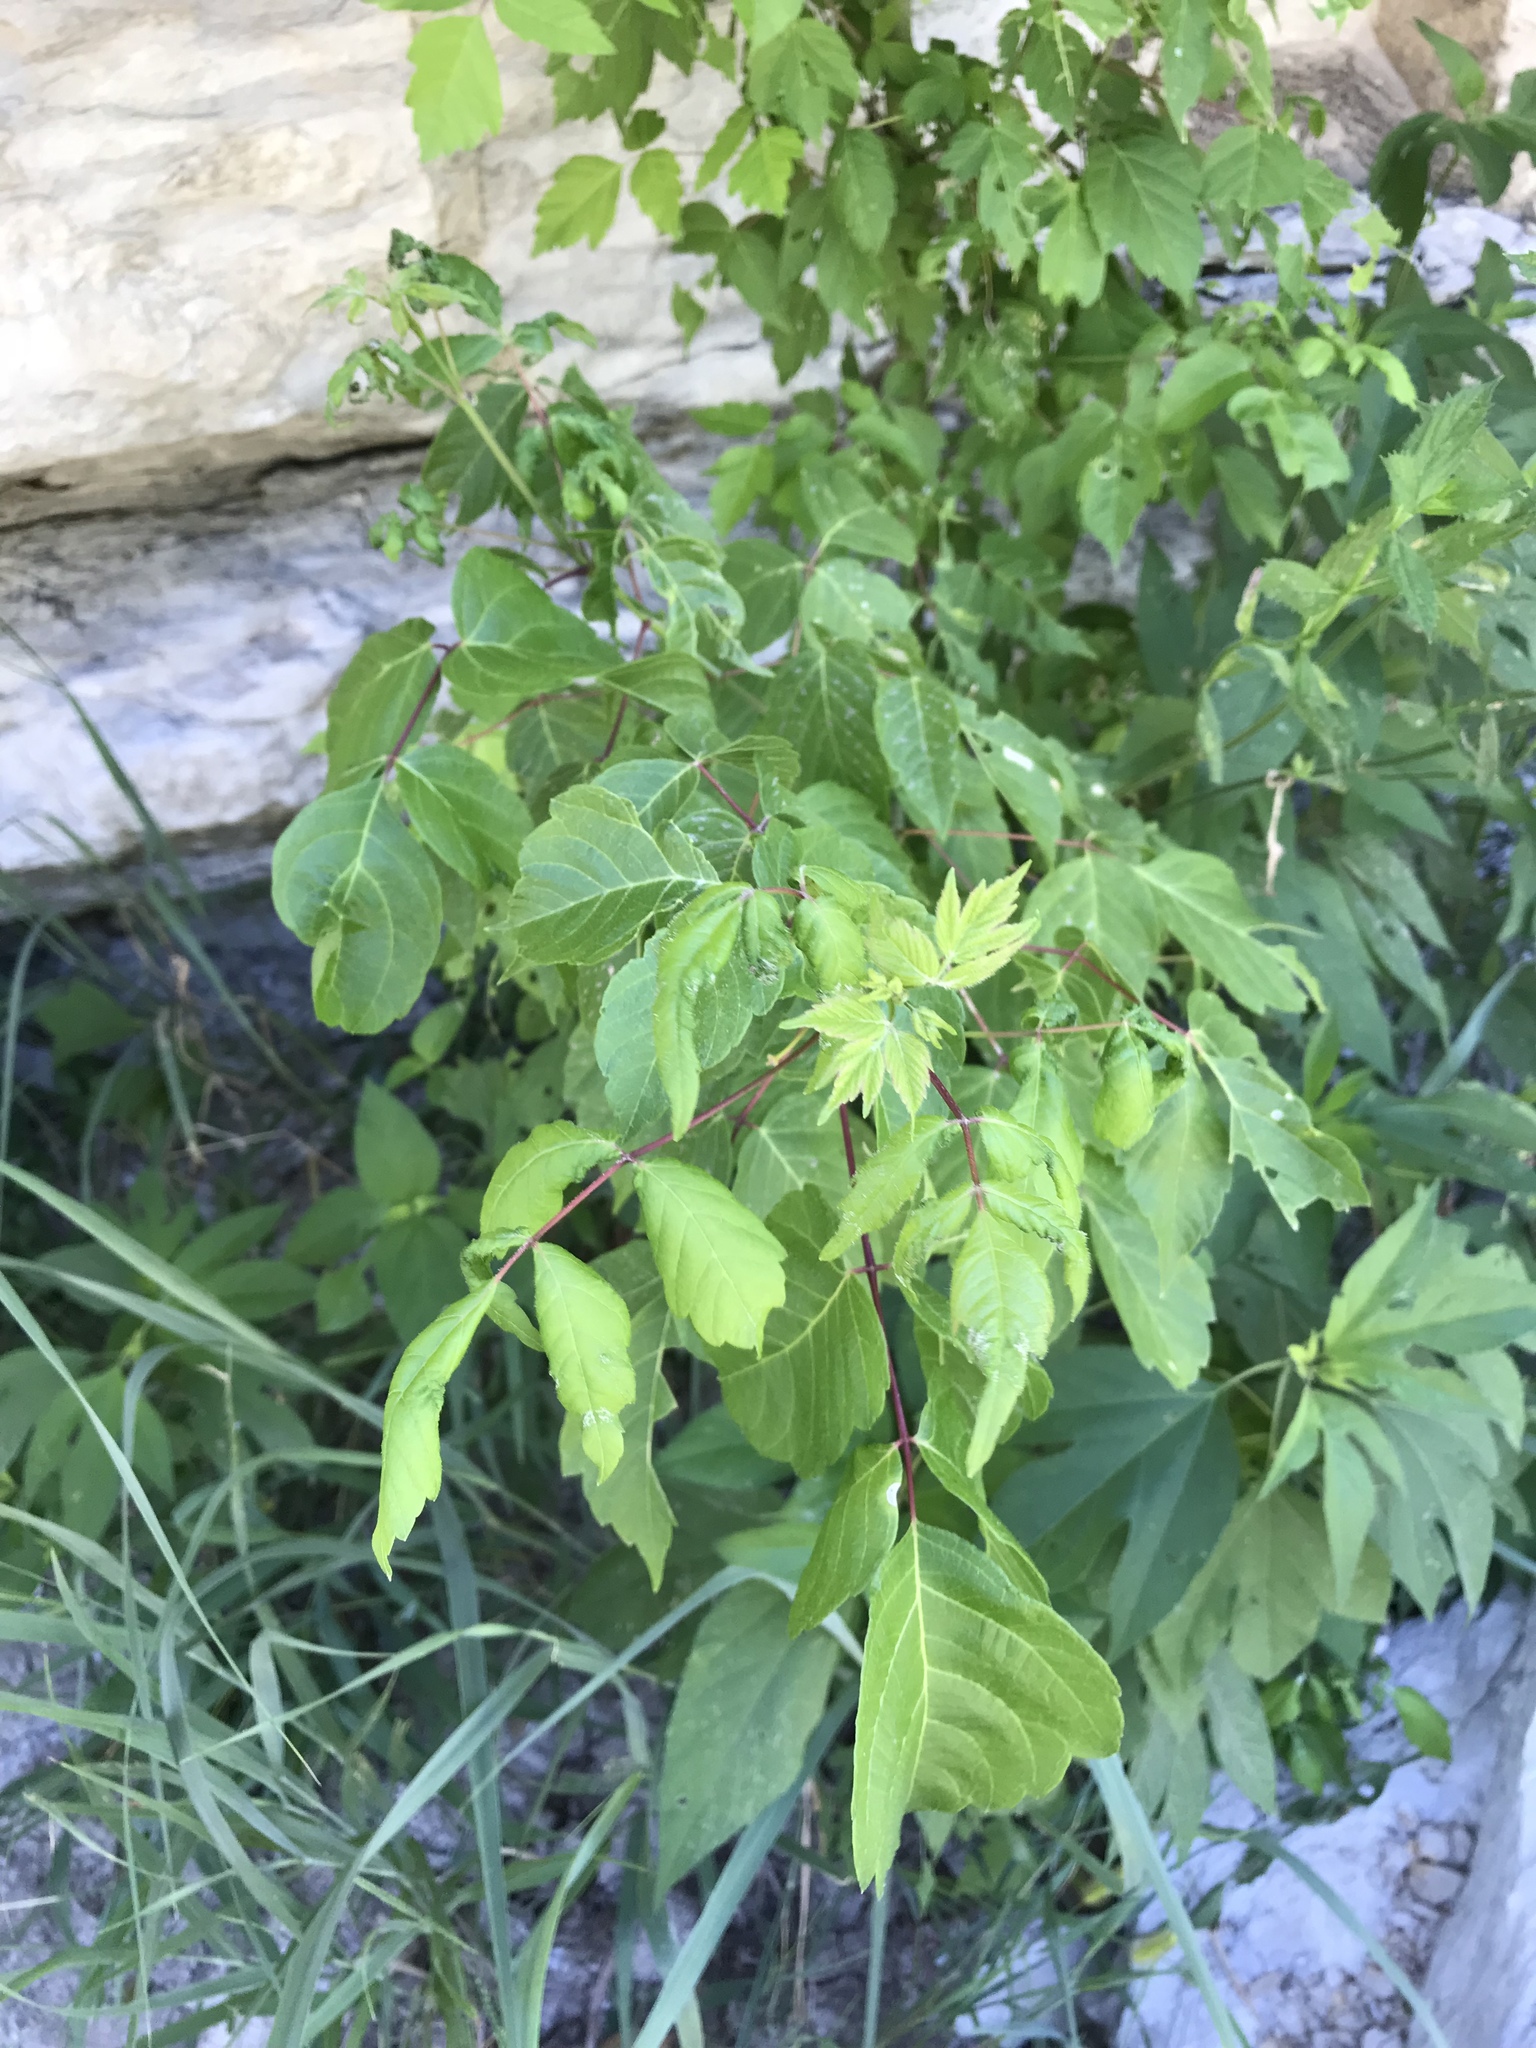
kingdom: Plantae
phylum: Tracheophyta
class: Magnoliopsida
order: Sapindales
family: Sapindaceae
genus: Acer
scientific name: Acer negundo
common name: Ashleaf maple
